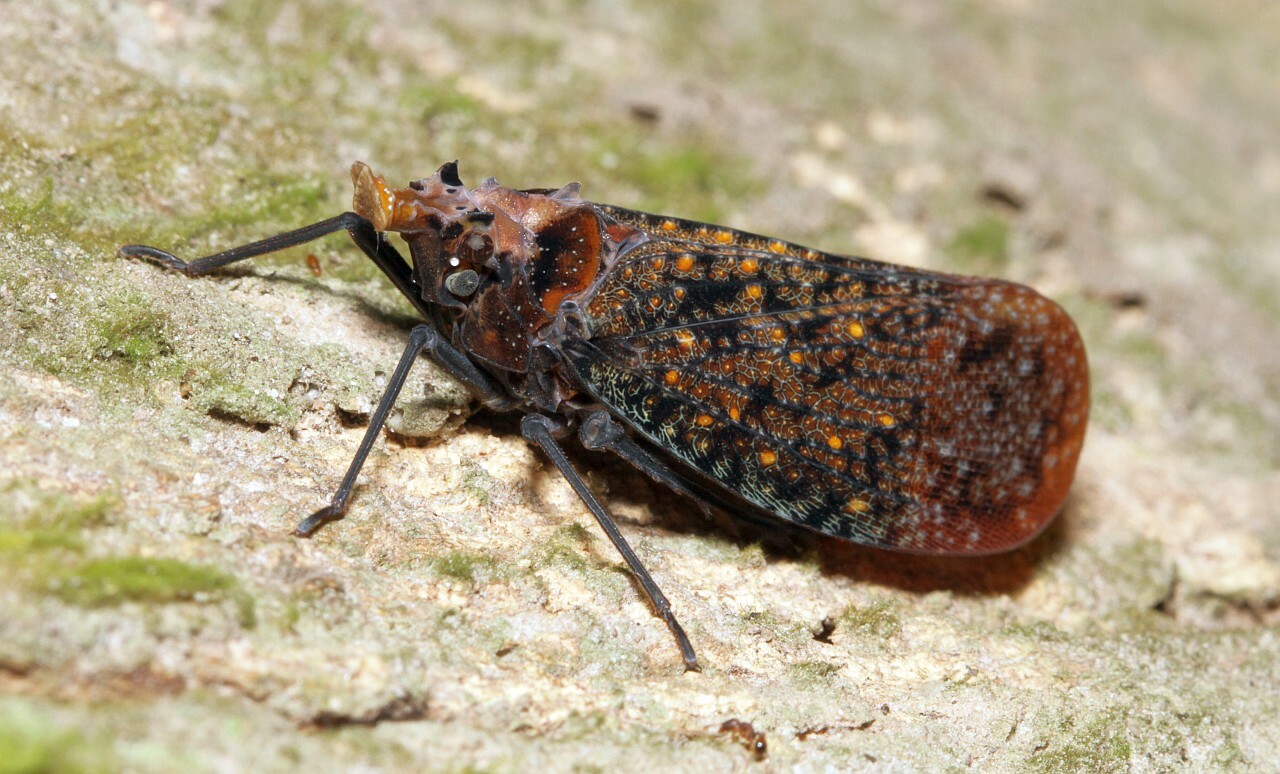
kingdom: Animalia
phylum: Arthropoda
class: Insecta
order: Hemiptera
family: Fulgoridae
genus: Phrictus
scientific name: Phrictus auromaculatus
